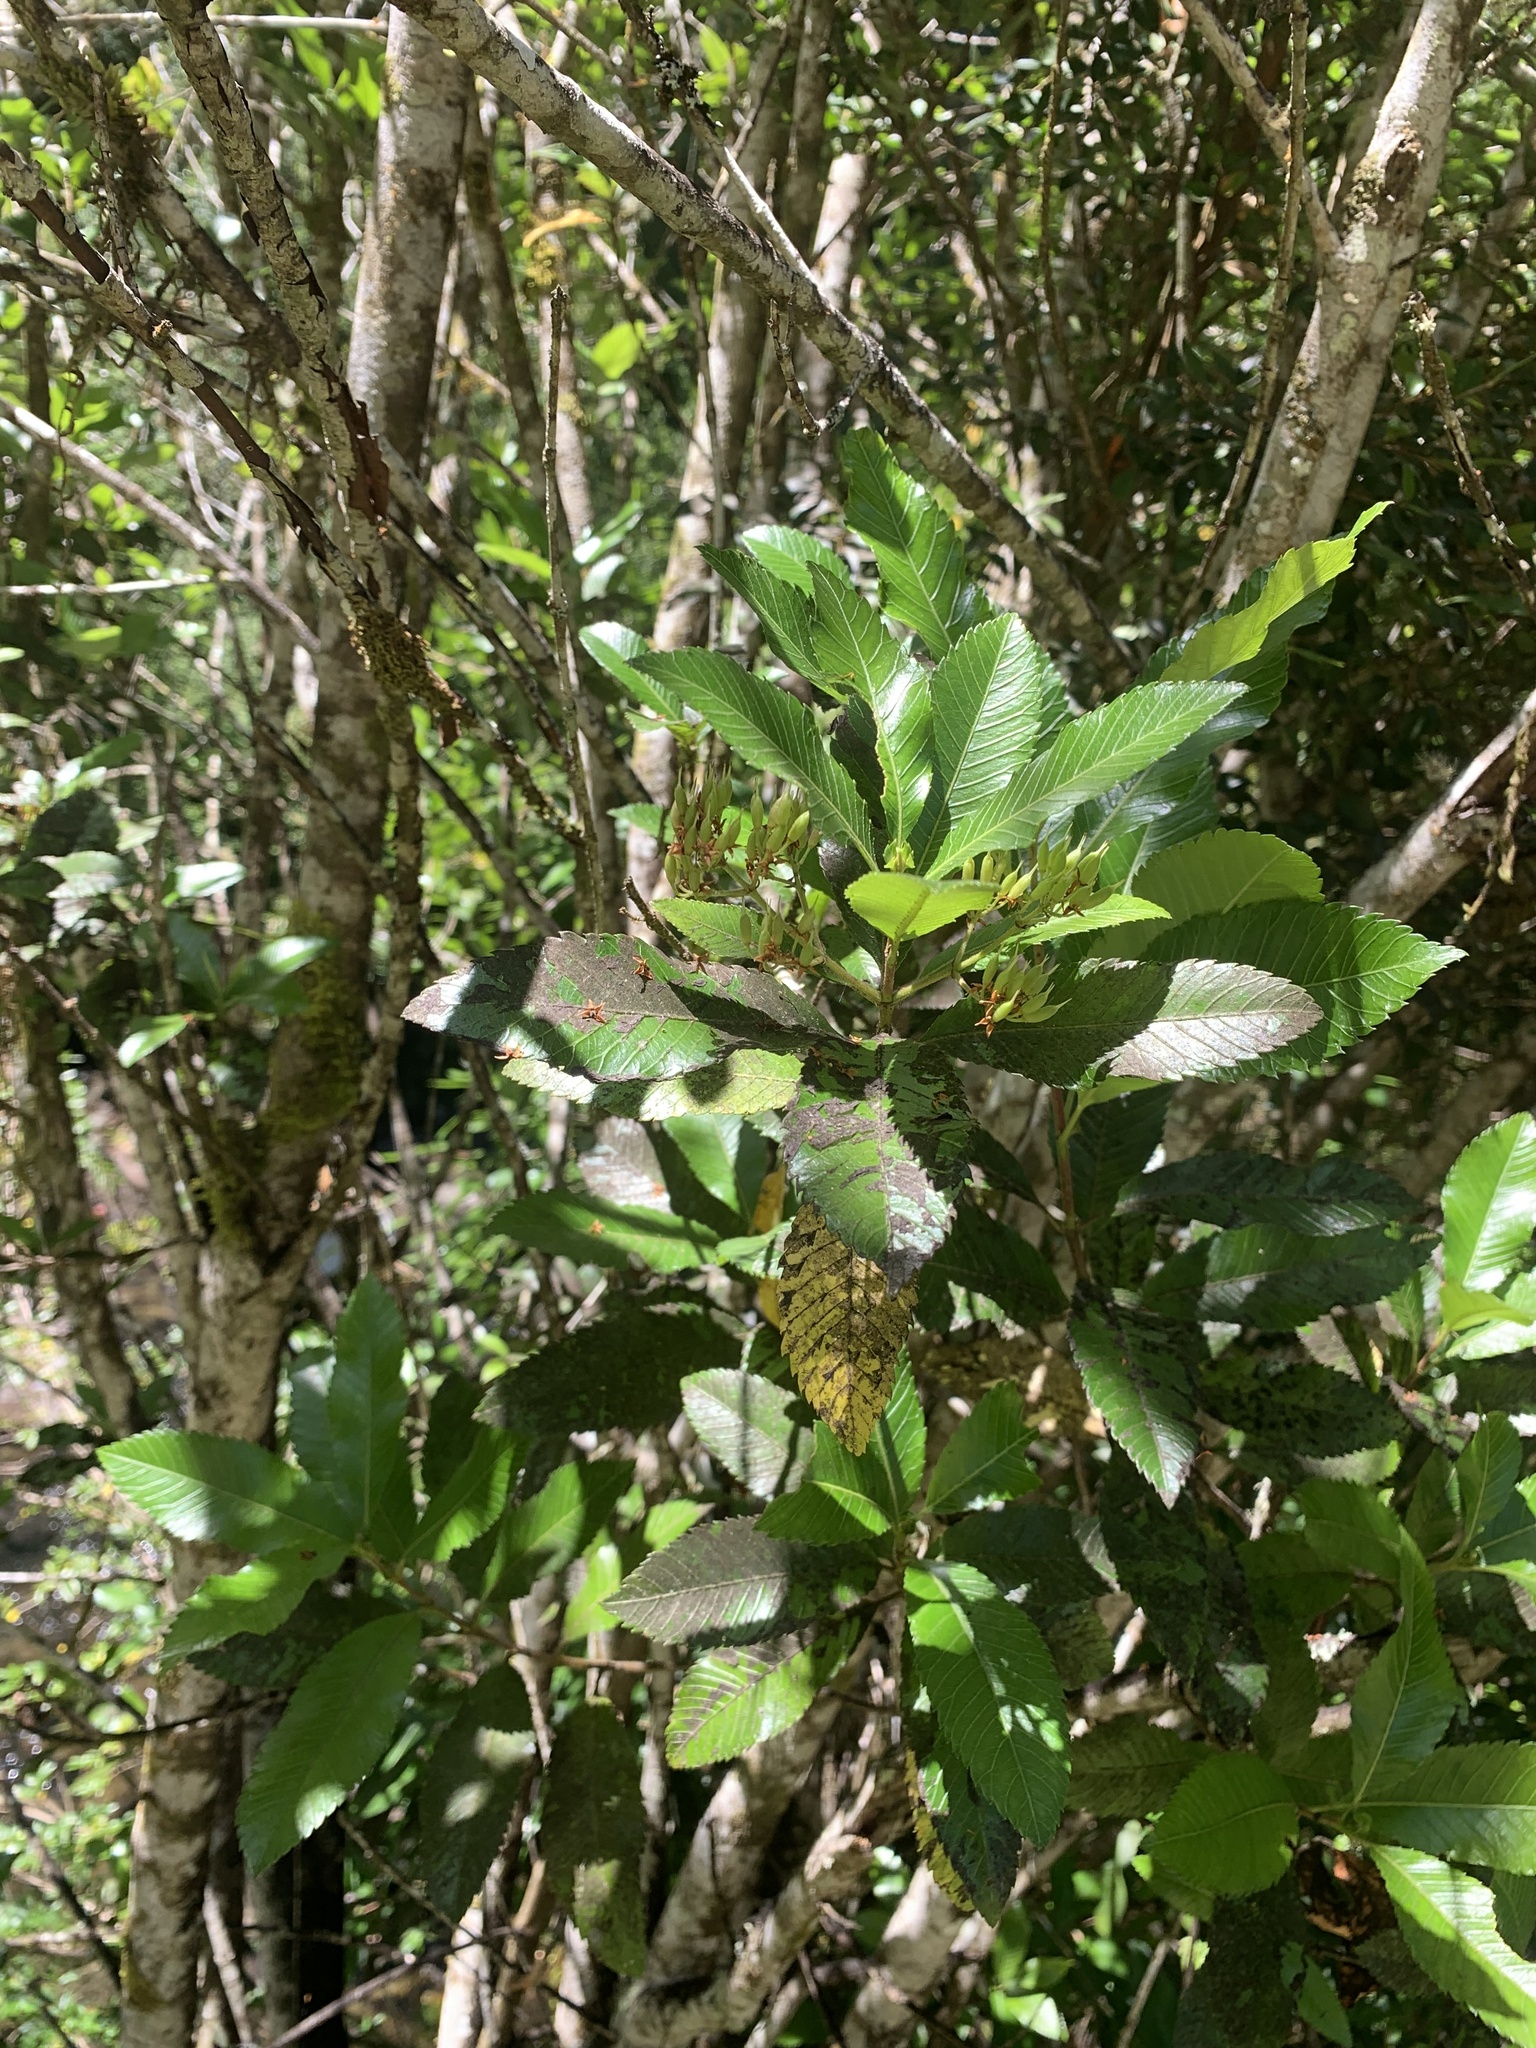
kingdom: Plantae
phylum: Tracheophyta
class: Magnoliopsida
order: Oxalidales
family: Cunoniaceae
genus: Caldcluvia
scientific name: Caldcluvia paniculata
